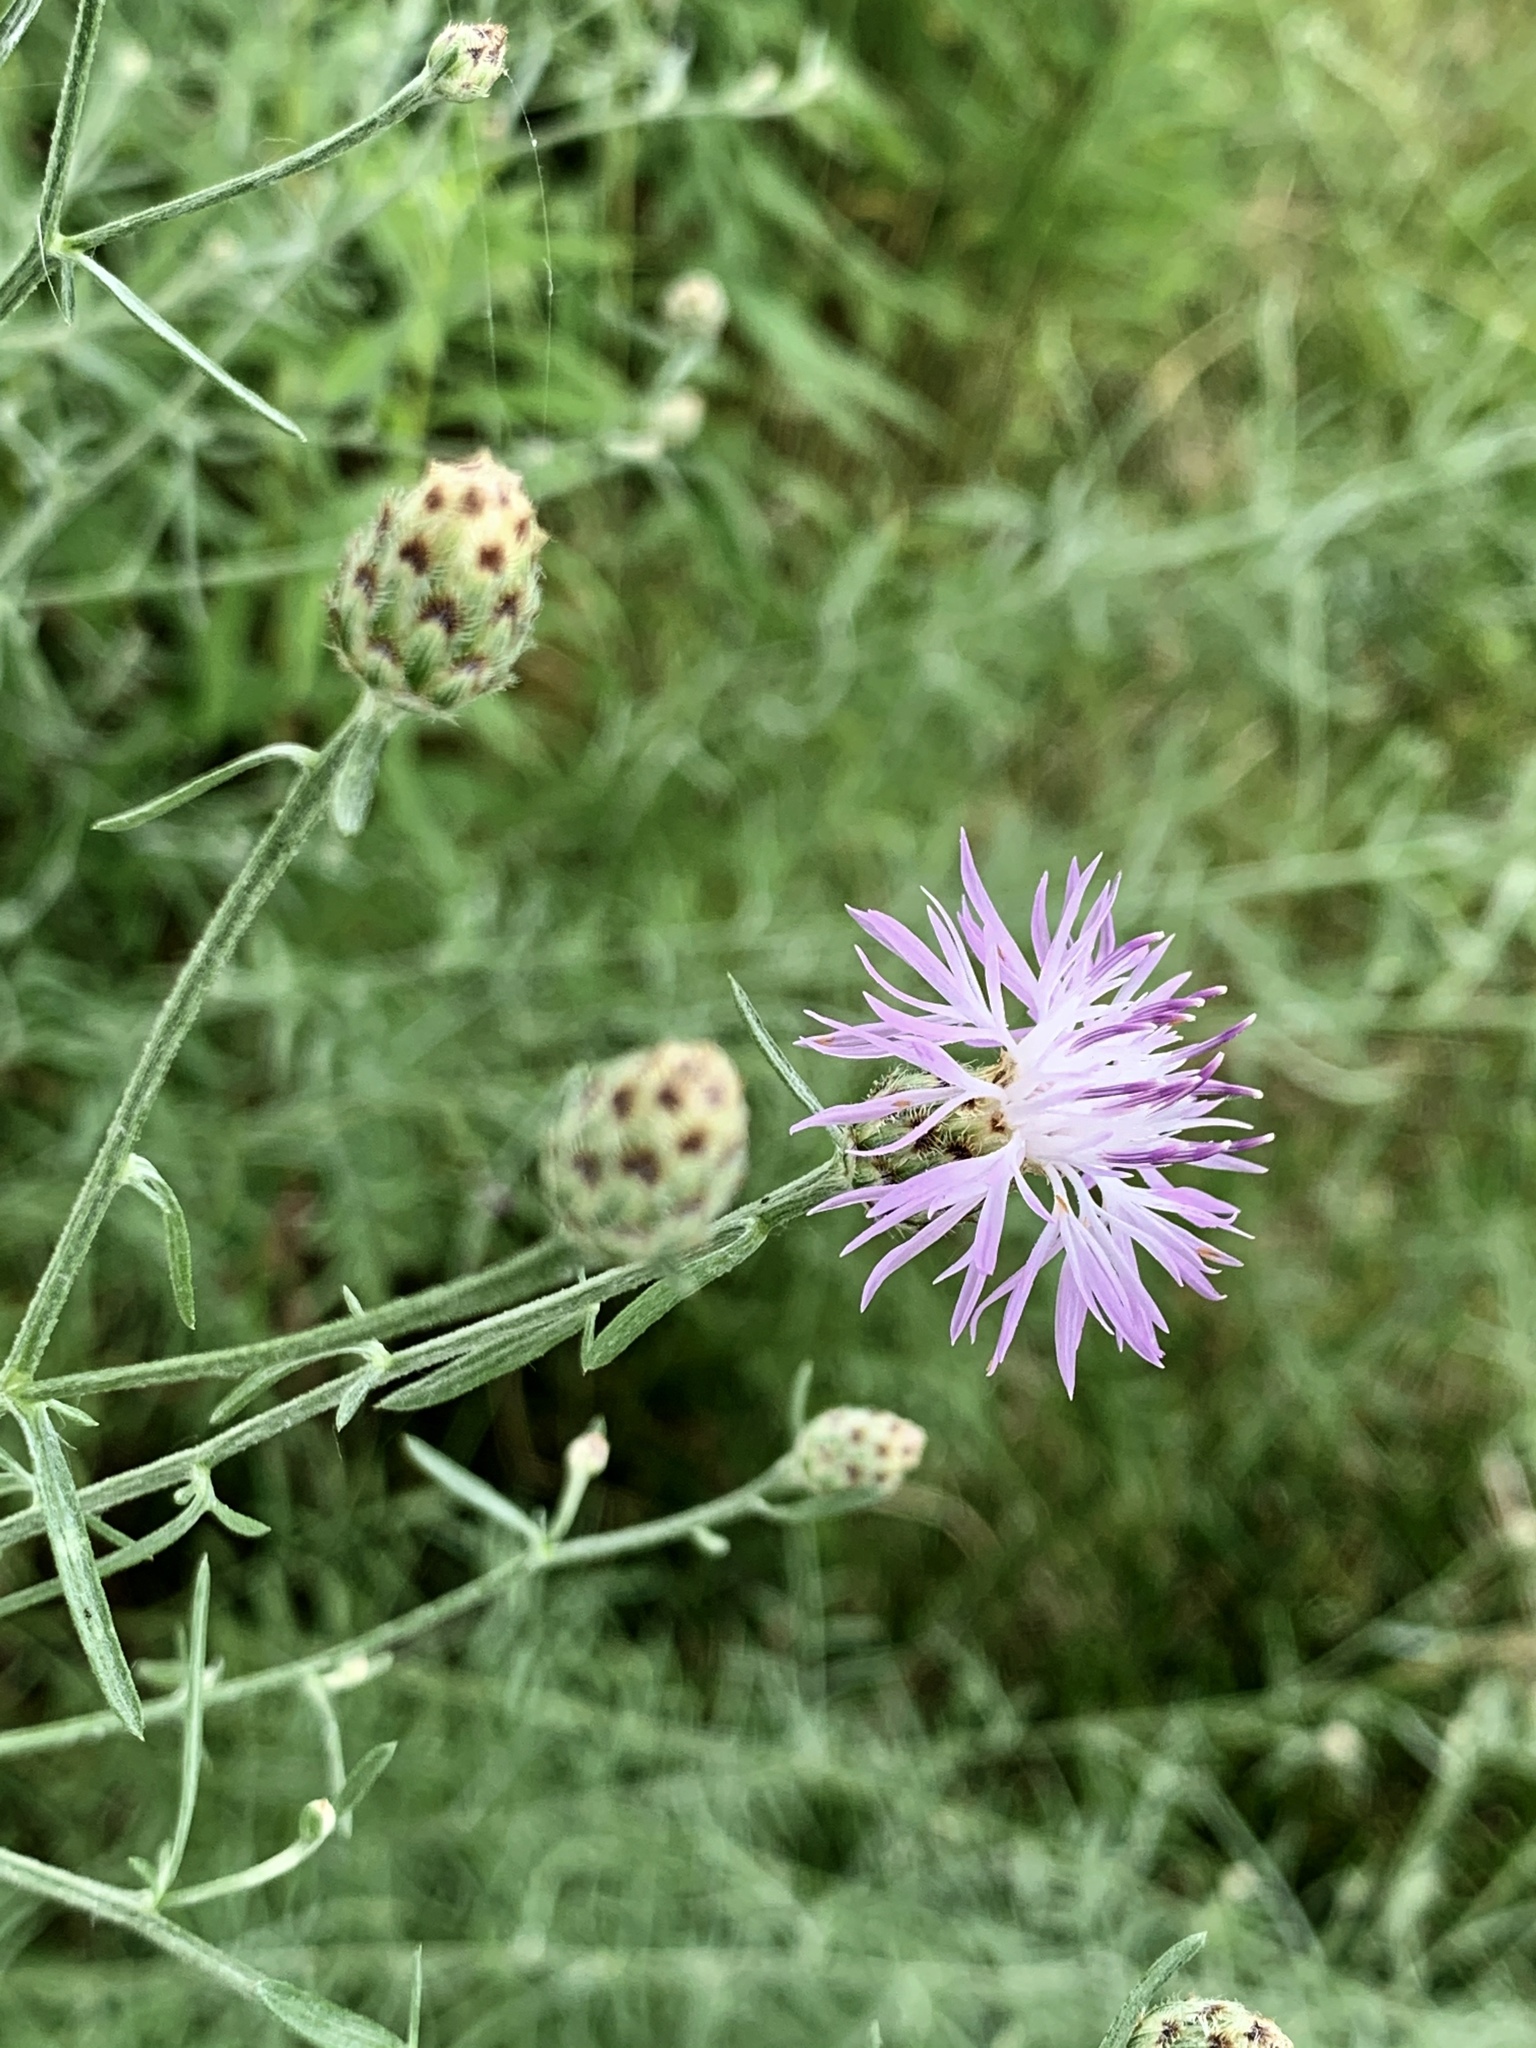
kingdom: Plantae
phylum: Tracheophyta
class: Magnoliopsida
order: Asterales
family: Asteraceae
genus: Centaurea
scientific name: Centaurea stoebe
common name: Spotted knapweed
